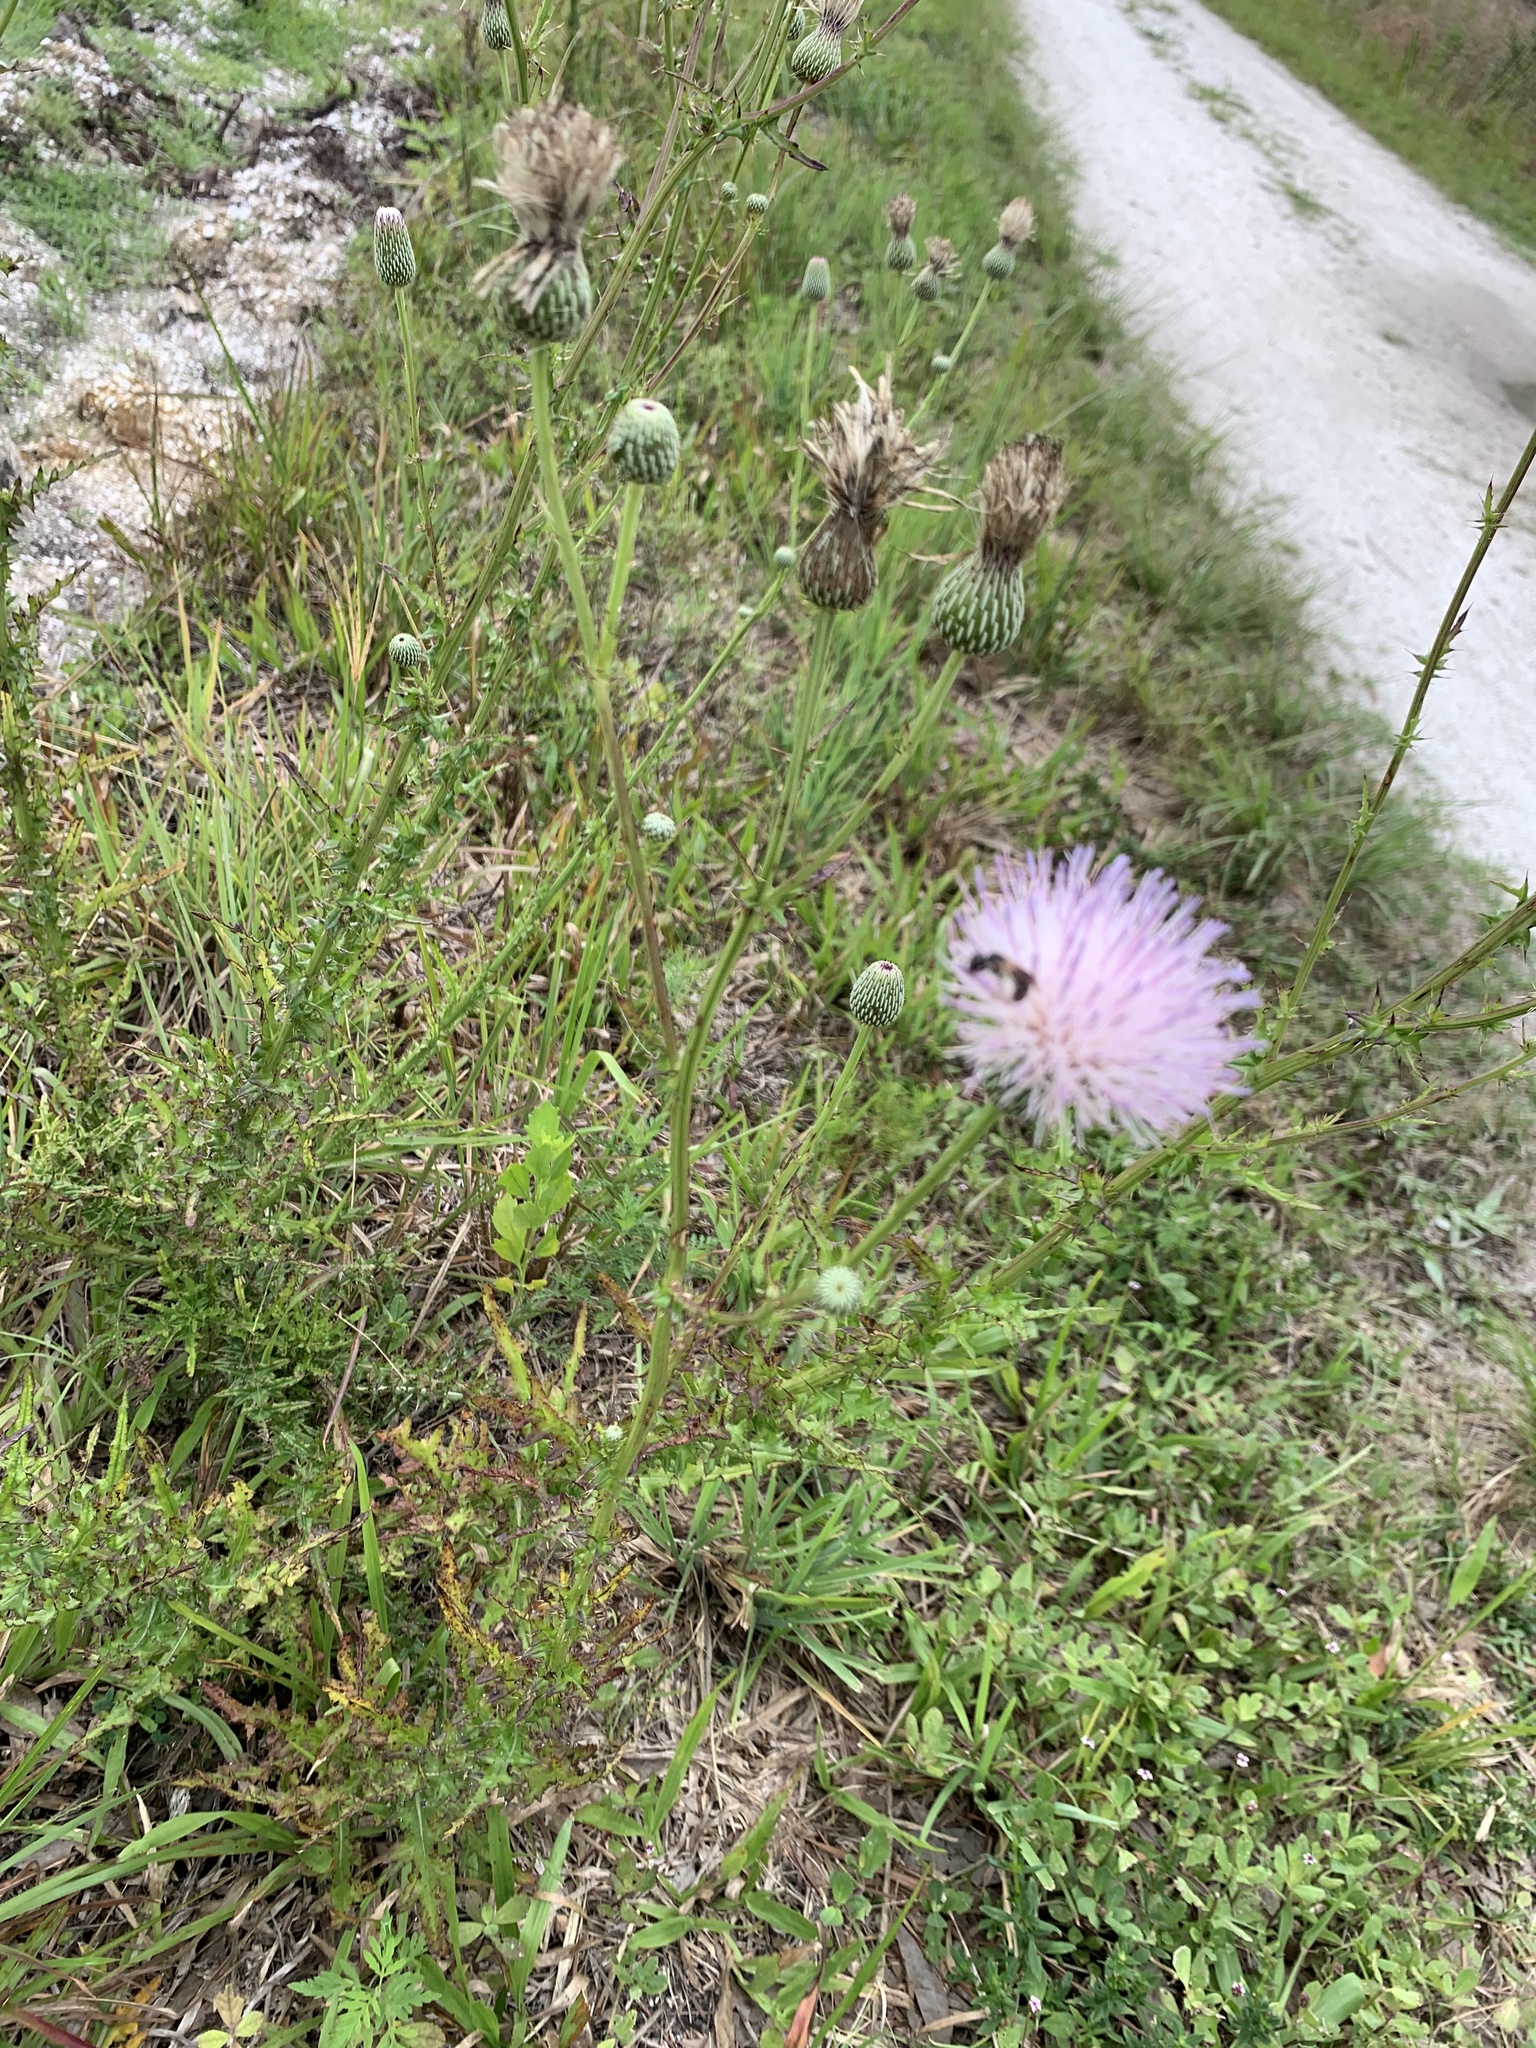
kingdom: Plantae
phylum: Tracheophyta
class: Magnoliopsida
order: Asterales
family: Asteraceae
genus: Cirsium
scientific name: Cirsium nuttalii
